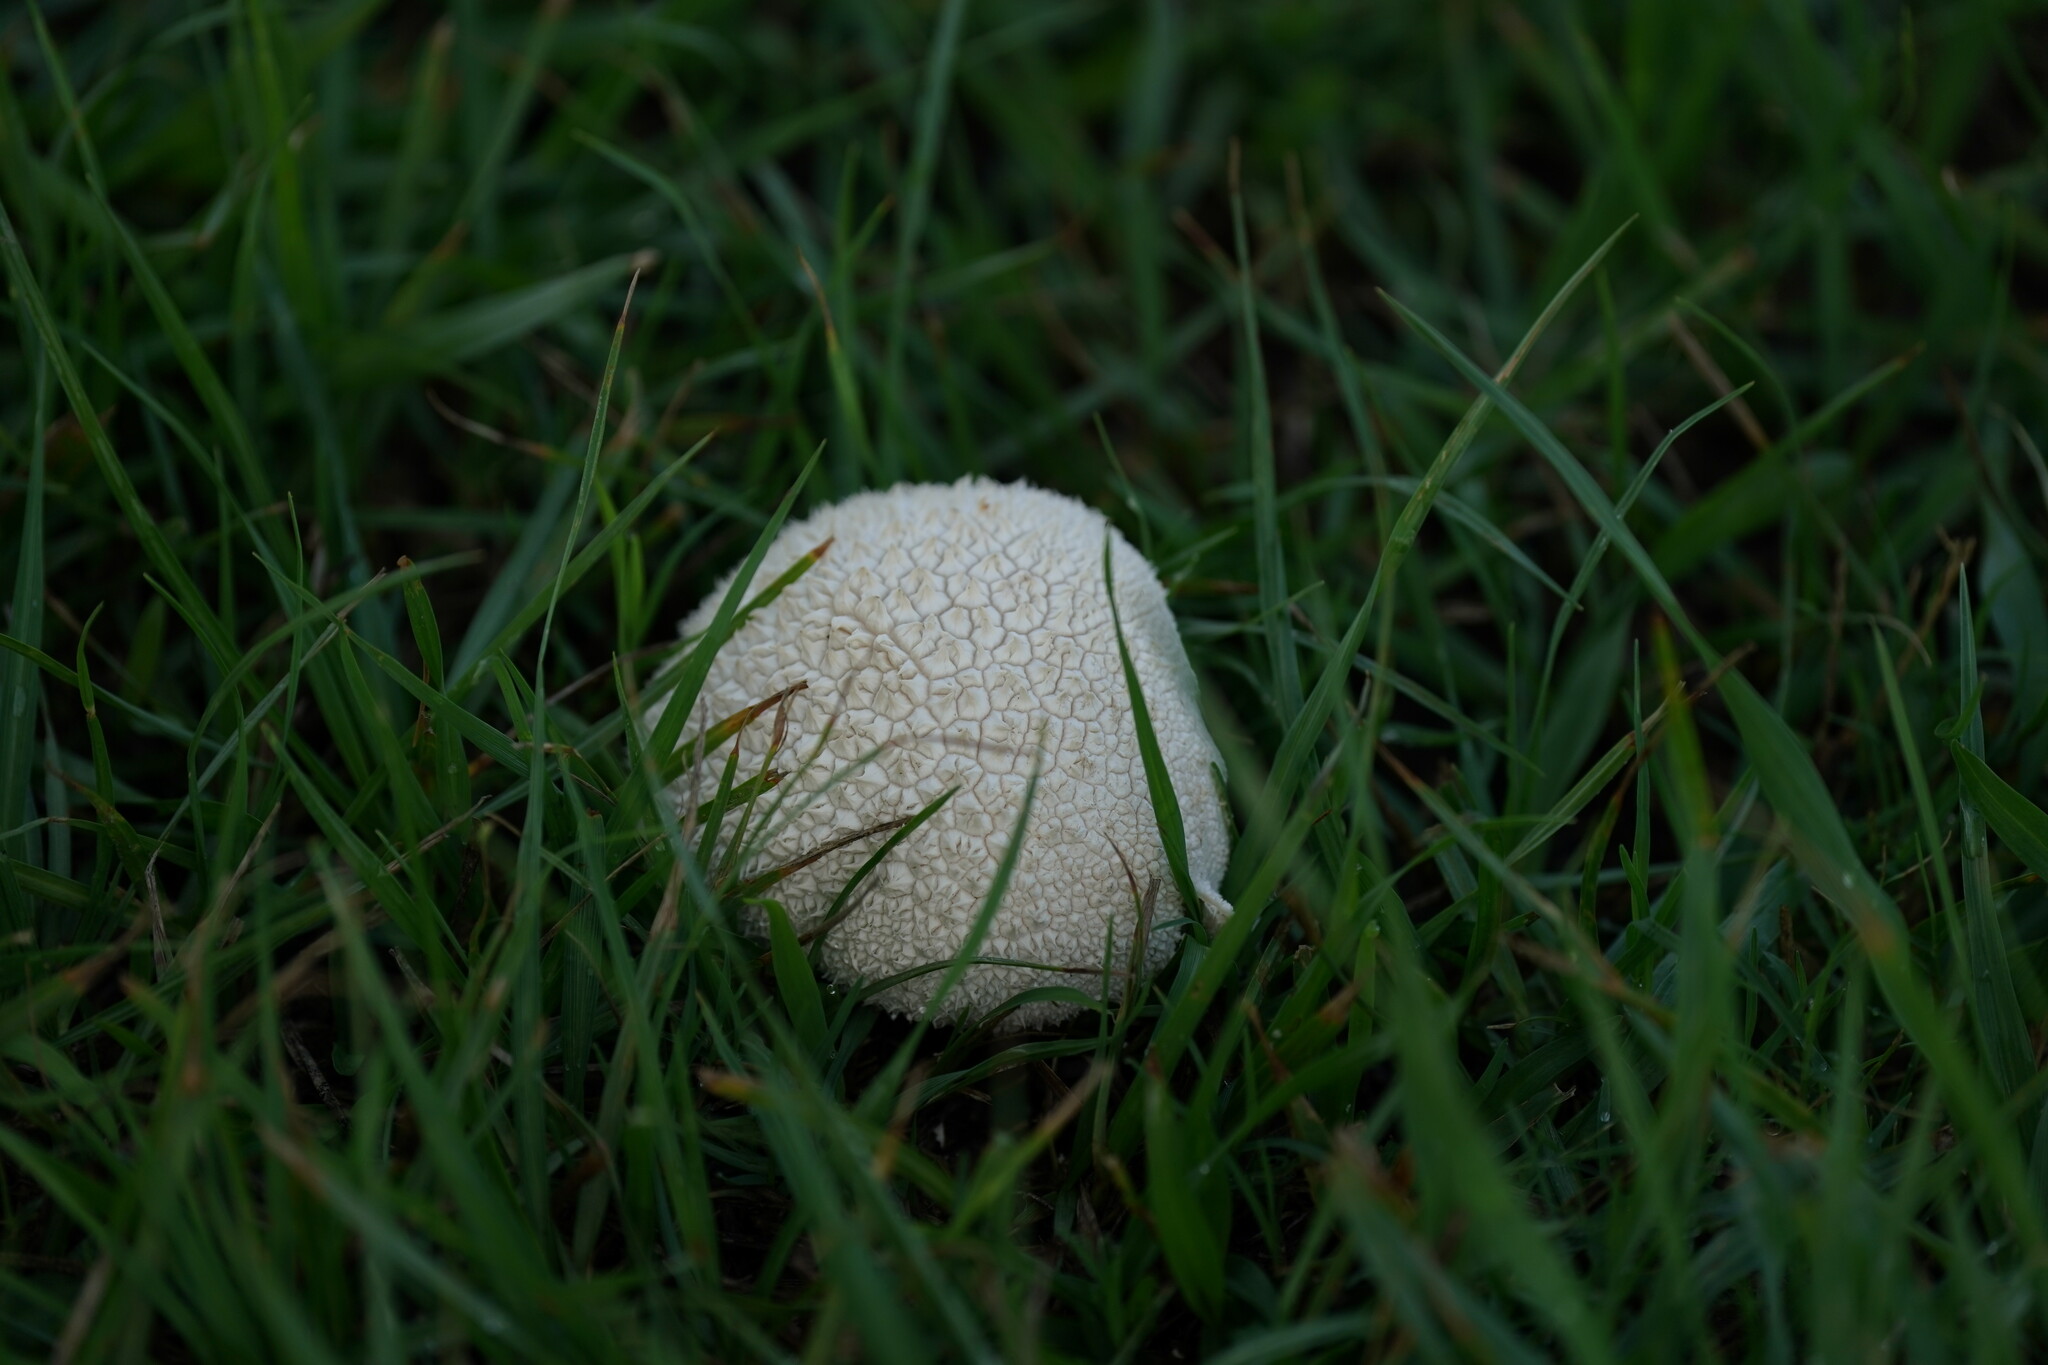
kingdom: Fungi
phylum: Basidiomycota
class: Agaricomycetes
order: Agaricales
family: Lycoperdaceae
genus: Lycoperdon
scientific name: Lycoperdon perlatum
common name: Common puffball
